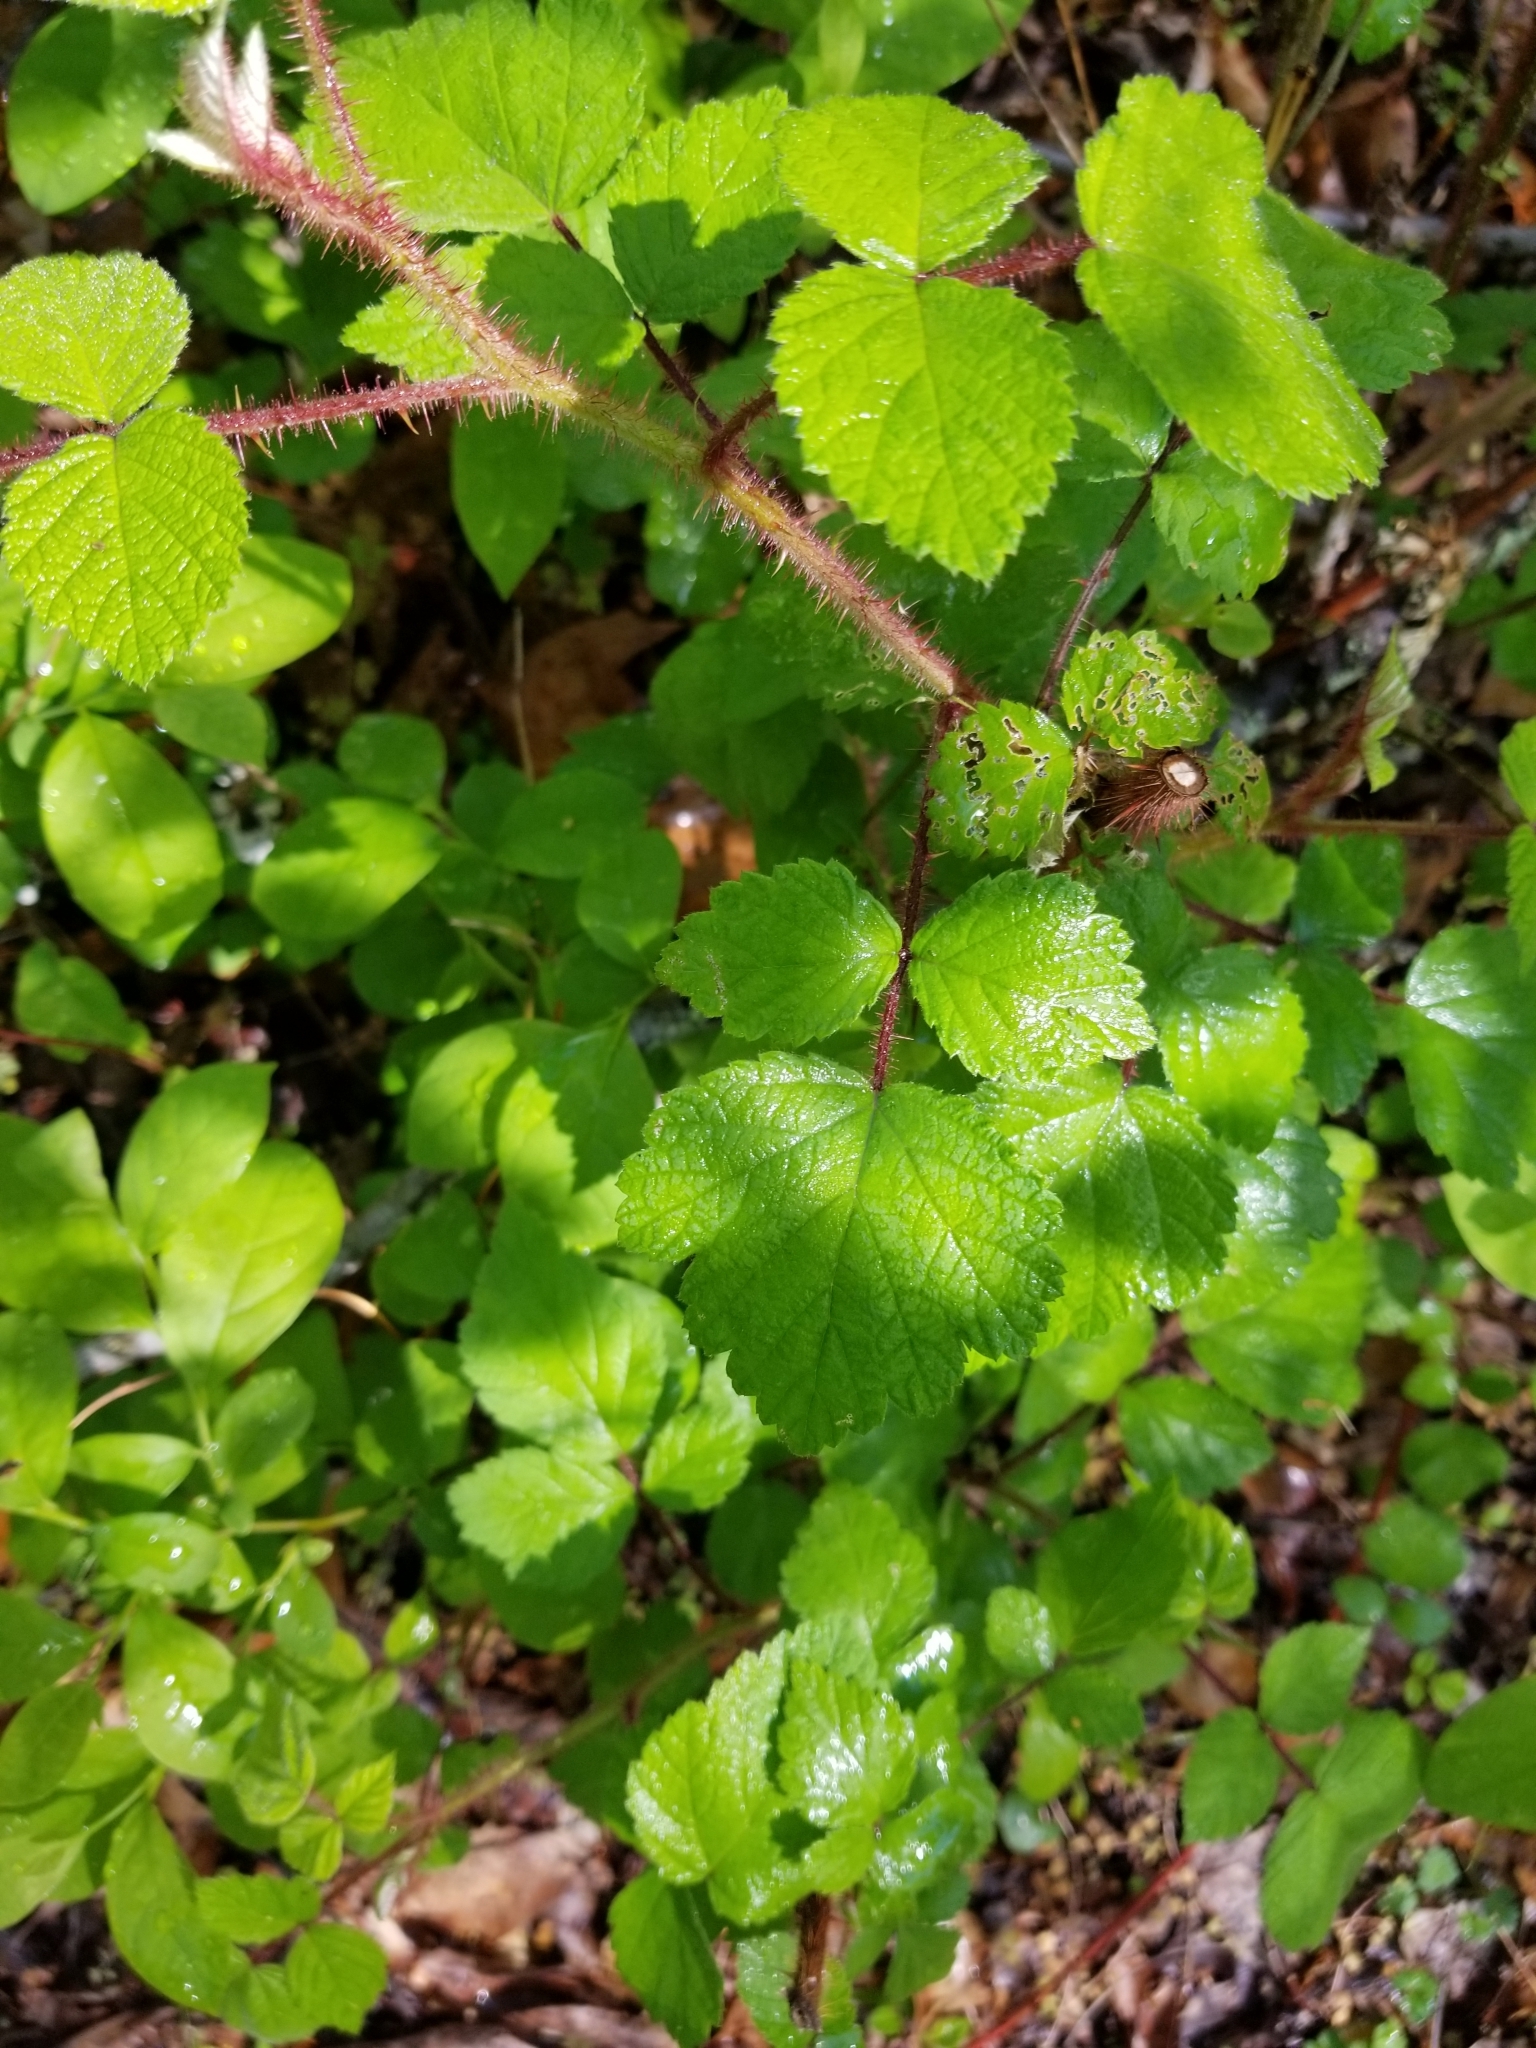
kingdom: Plantae
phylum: Tracheophyta
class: Magnoliopsida
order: Rosales
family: Rosaceae
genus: Rubus
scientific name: Rubus phoenicolasius
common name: Japanese wineberry
